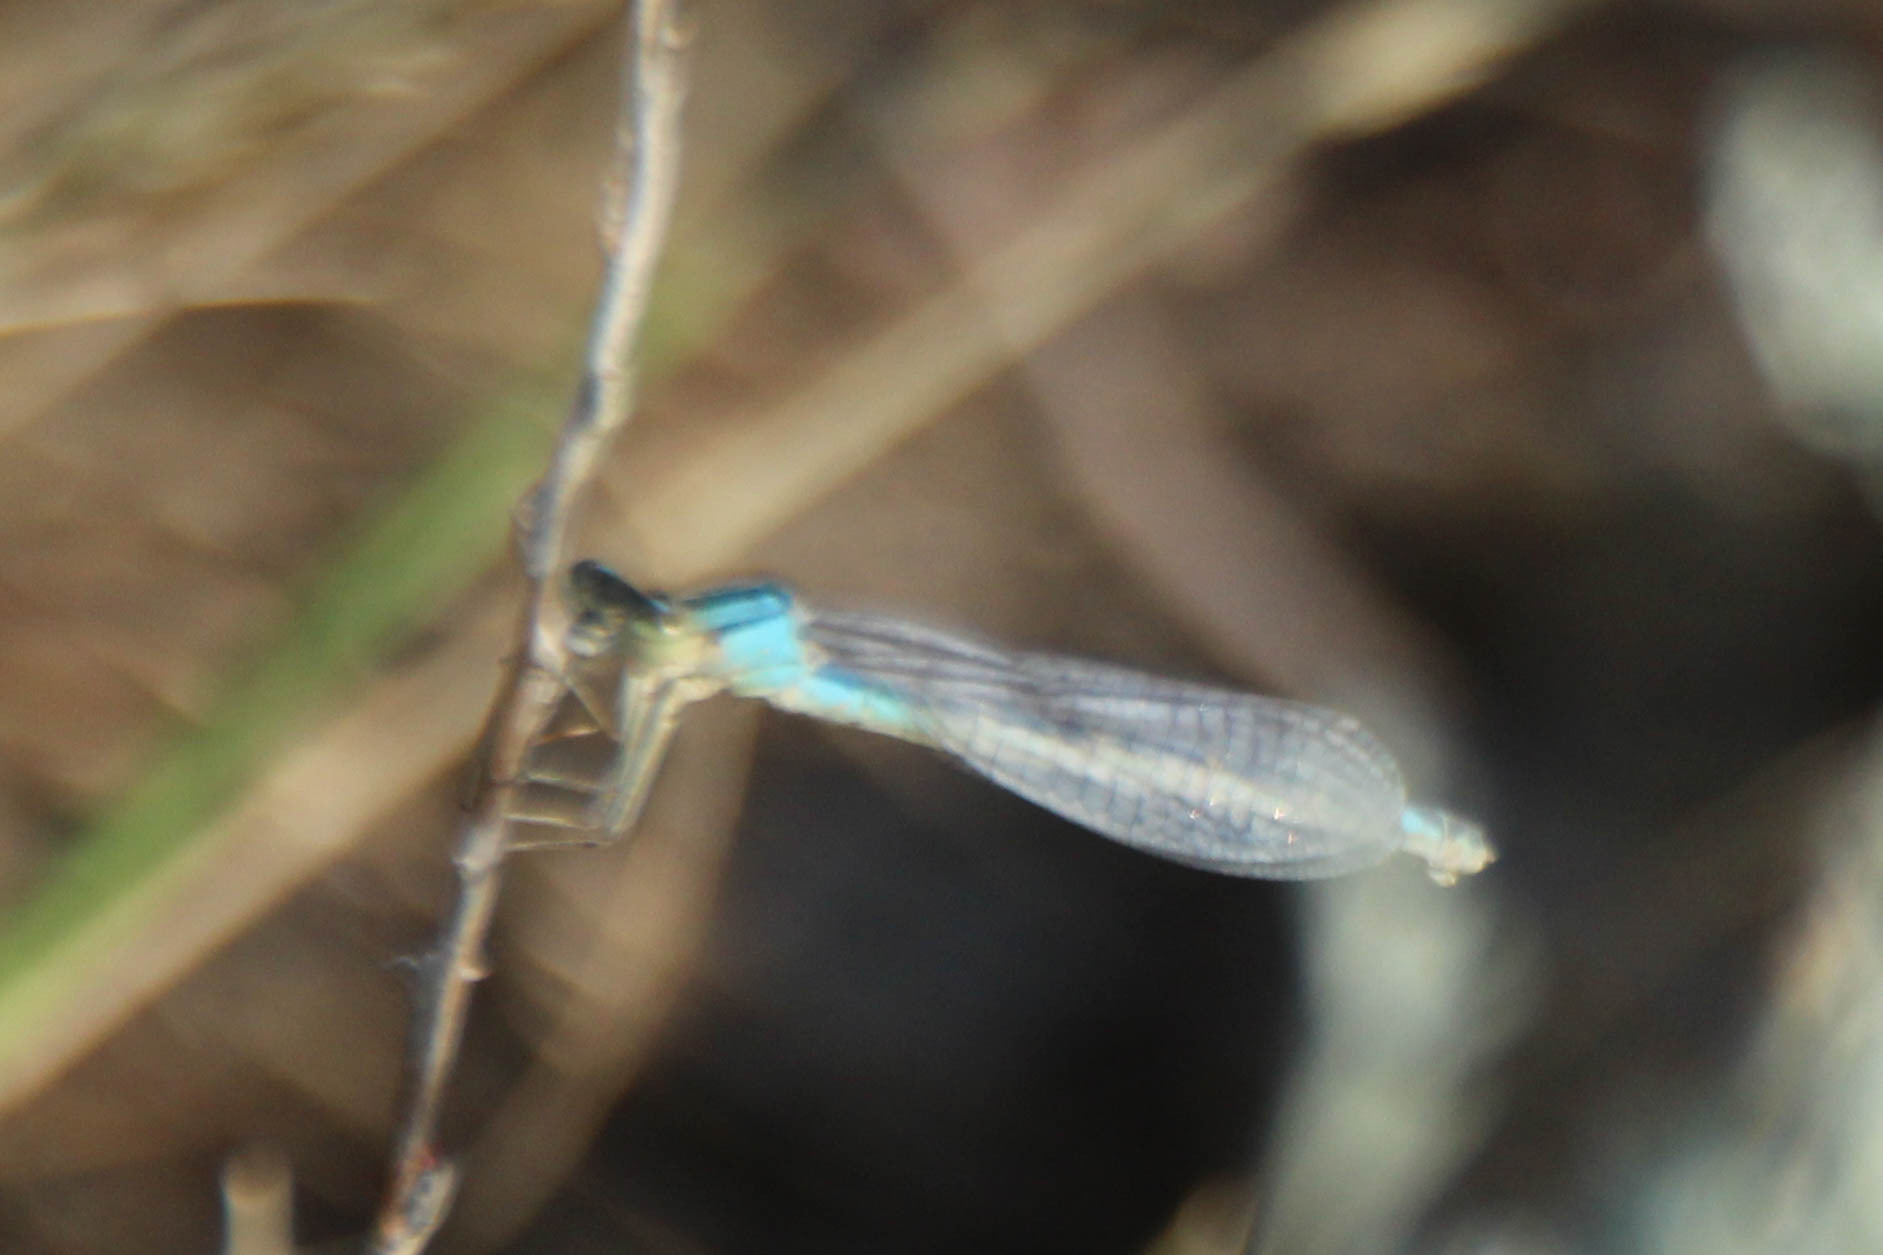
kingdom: Animalia
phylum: Arthropoda
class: Insecta
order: Odonata
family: Coenagrionidae
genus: Enallagma
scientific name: Enallagma cyathigerum
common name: Common blue damselfly
